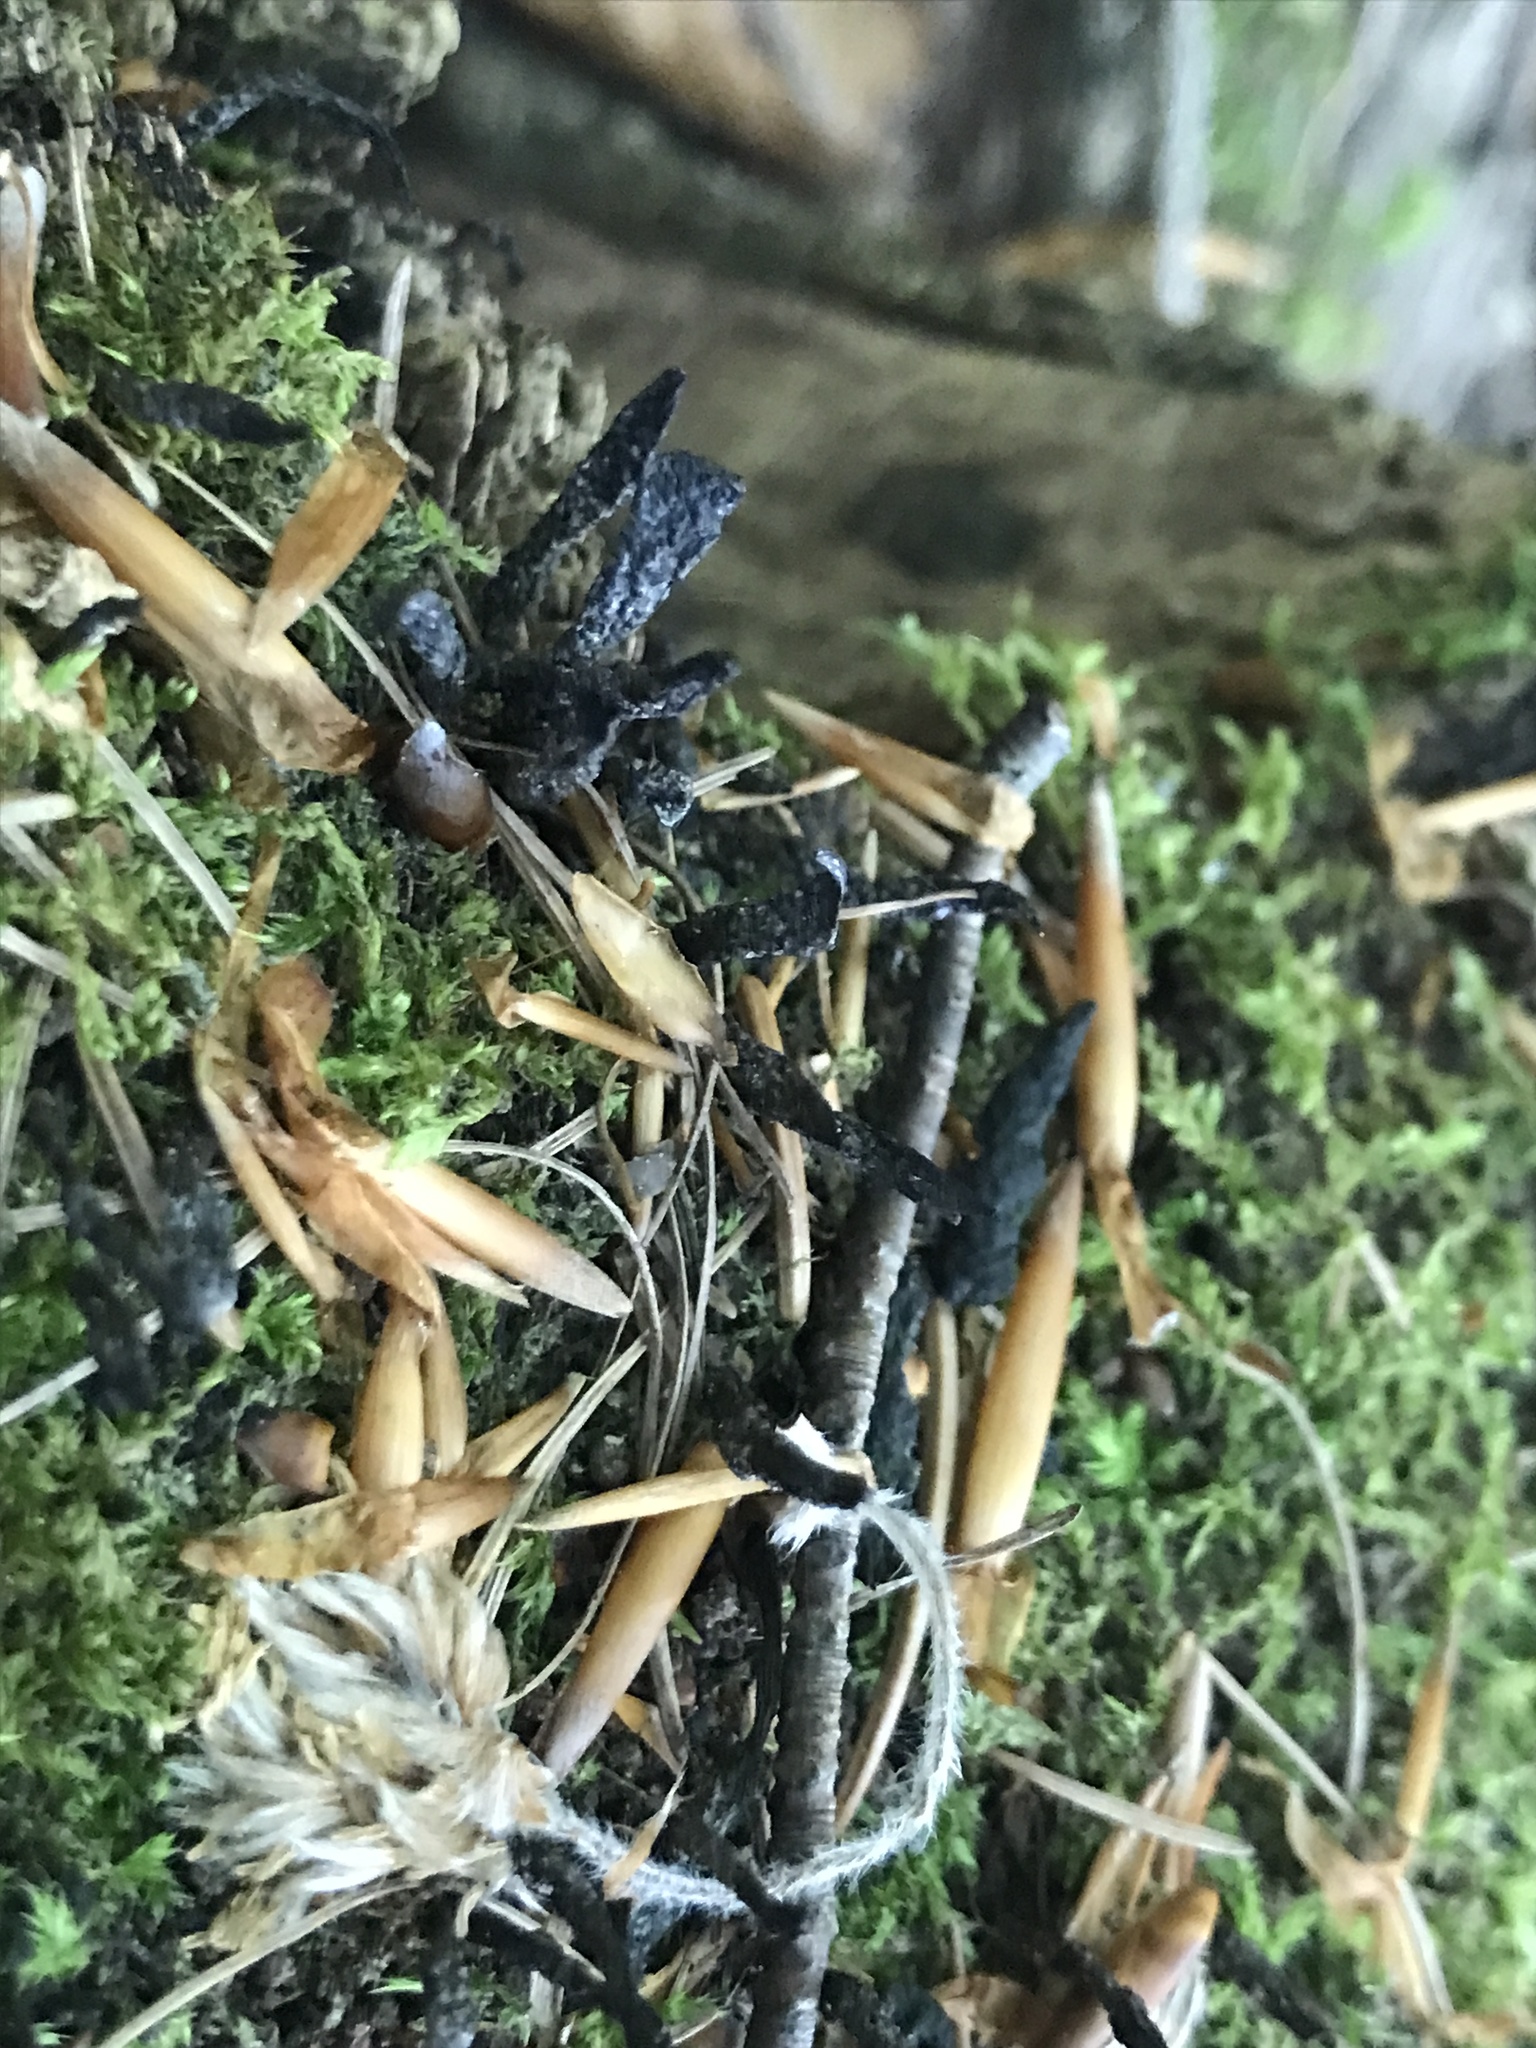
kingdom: Fungi
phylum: Ascomycota
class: Sordariomycetes
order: Xylariales
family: Xylariaceae
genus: Xylaria
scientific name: Xylaria hypoxylon
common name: Candle-snuff fungus
